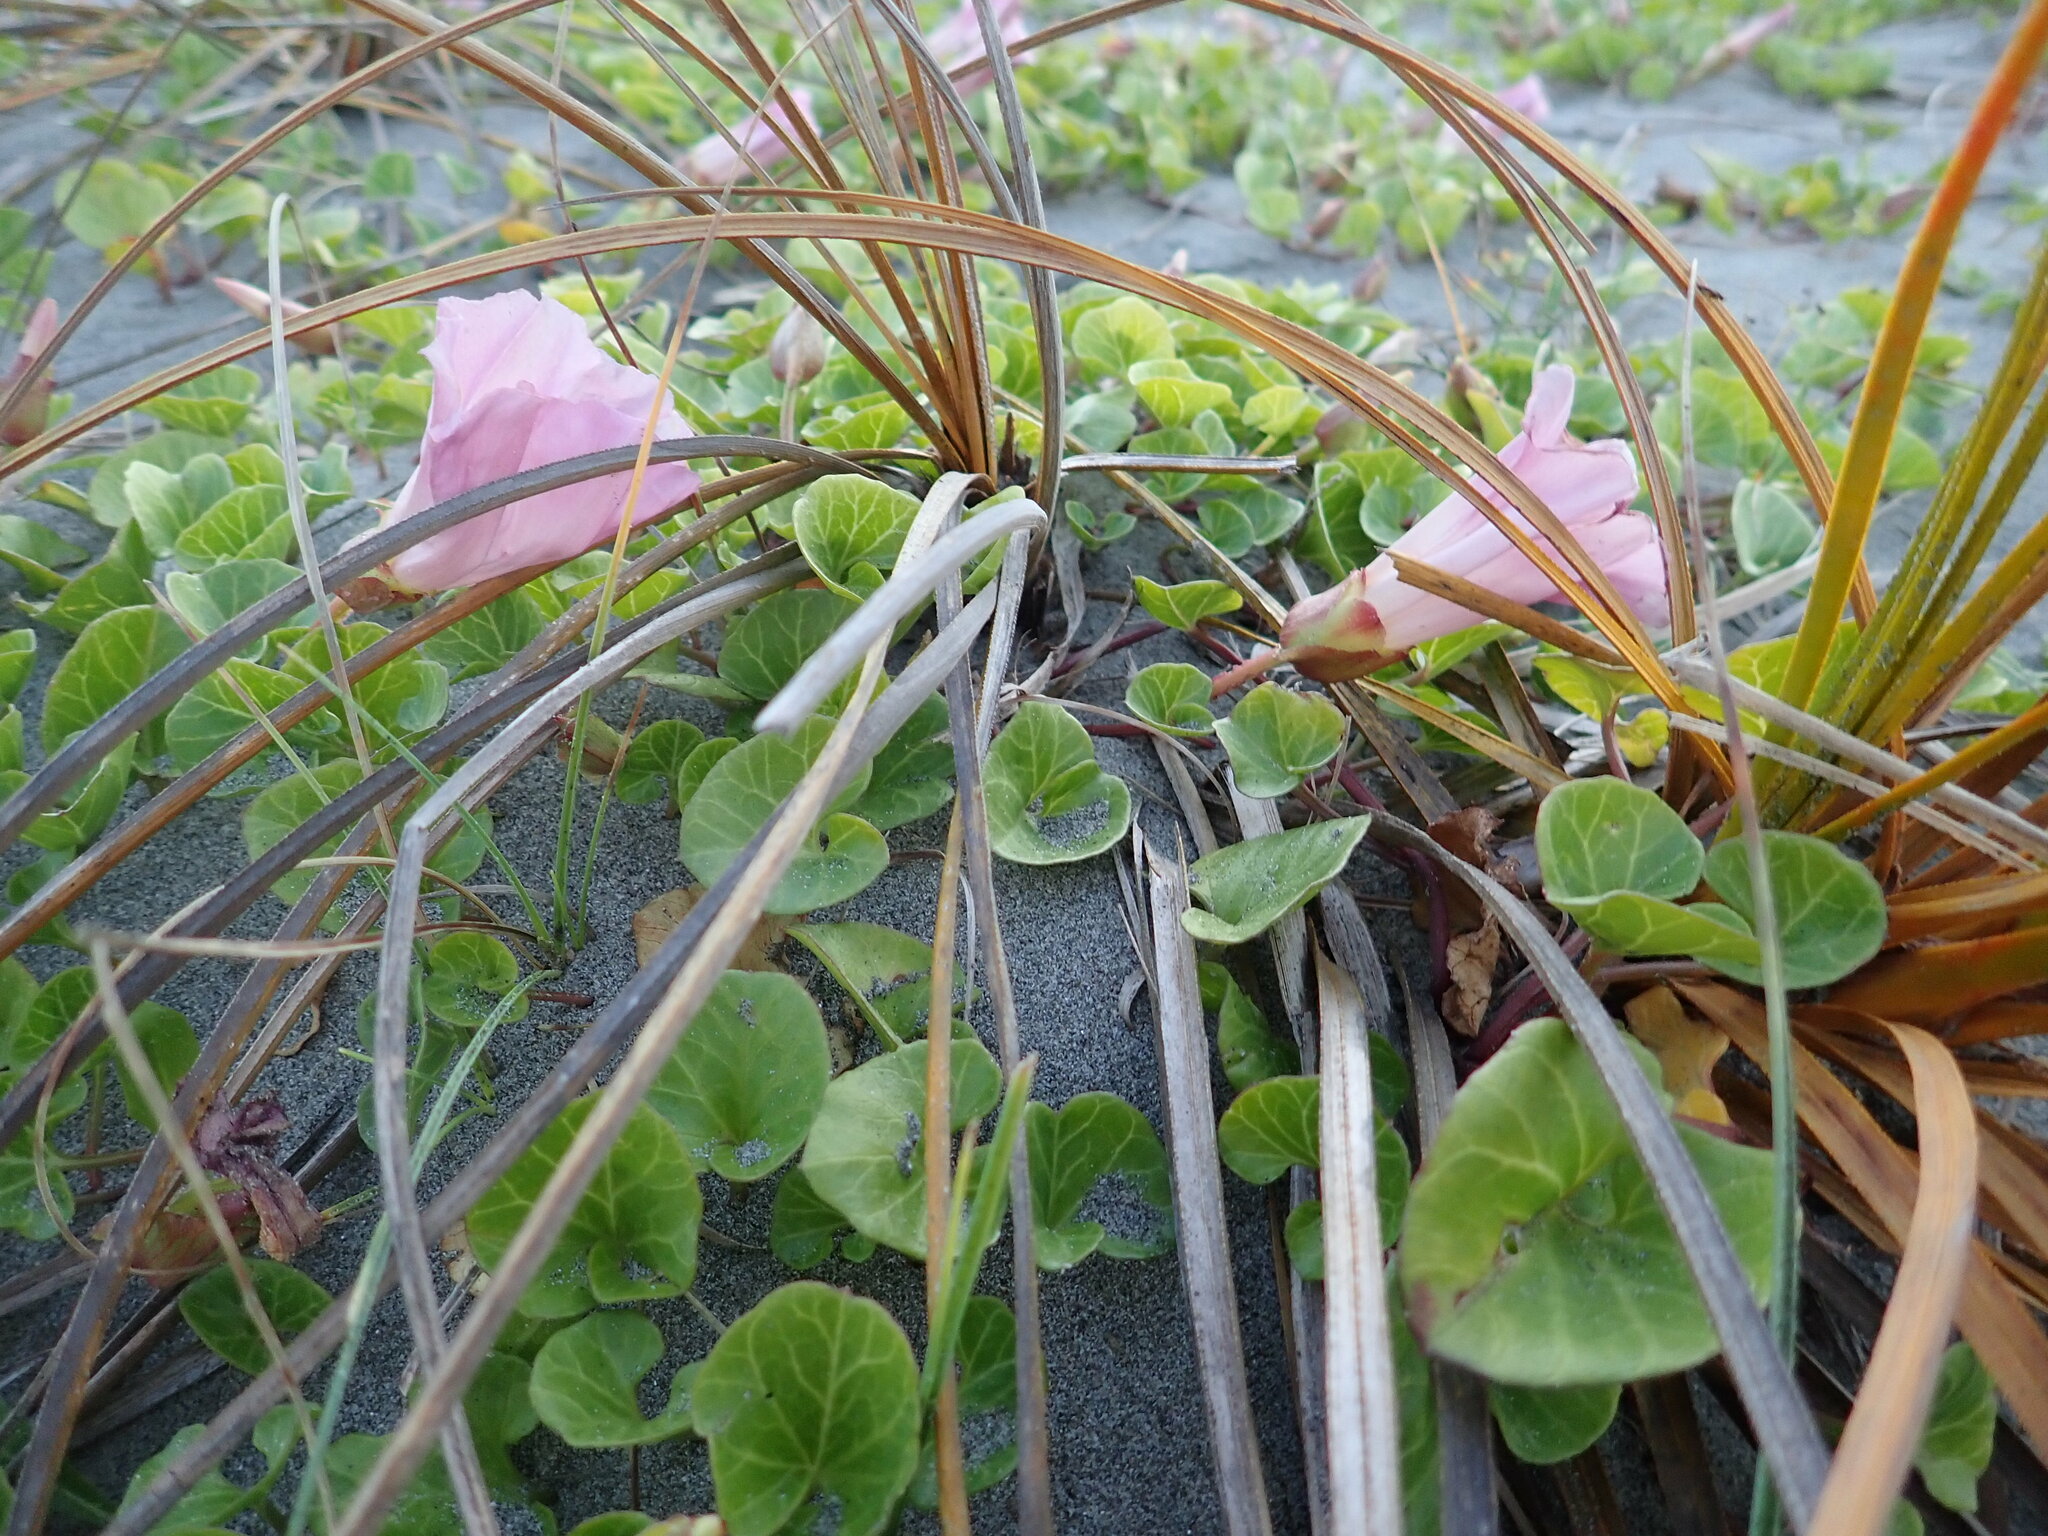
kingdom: Plantae
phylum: Tracheophyta
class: Magnoliopsida
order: Solanales
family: Convolvulaceae
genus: Calystegia
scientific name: Calystegia soldanella
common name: Sea bindweed
